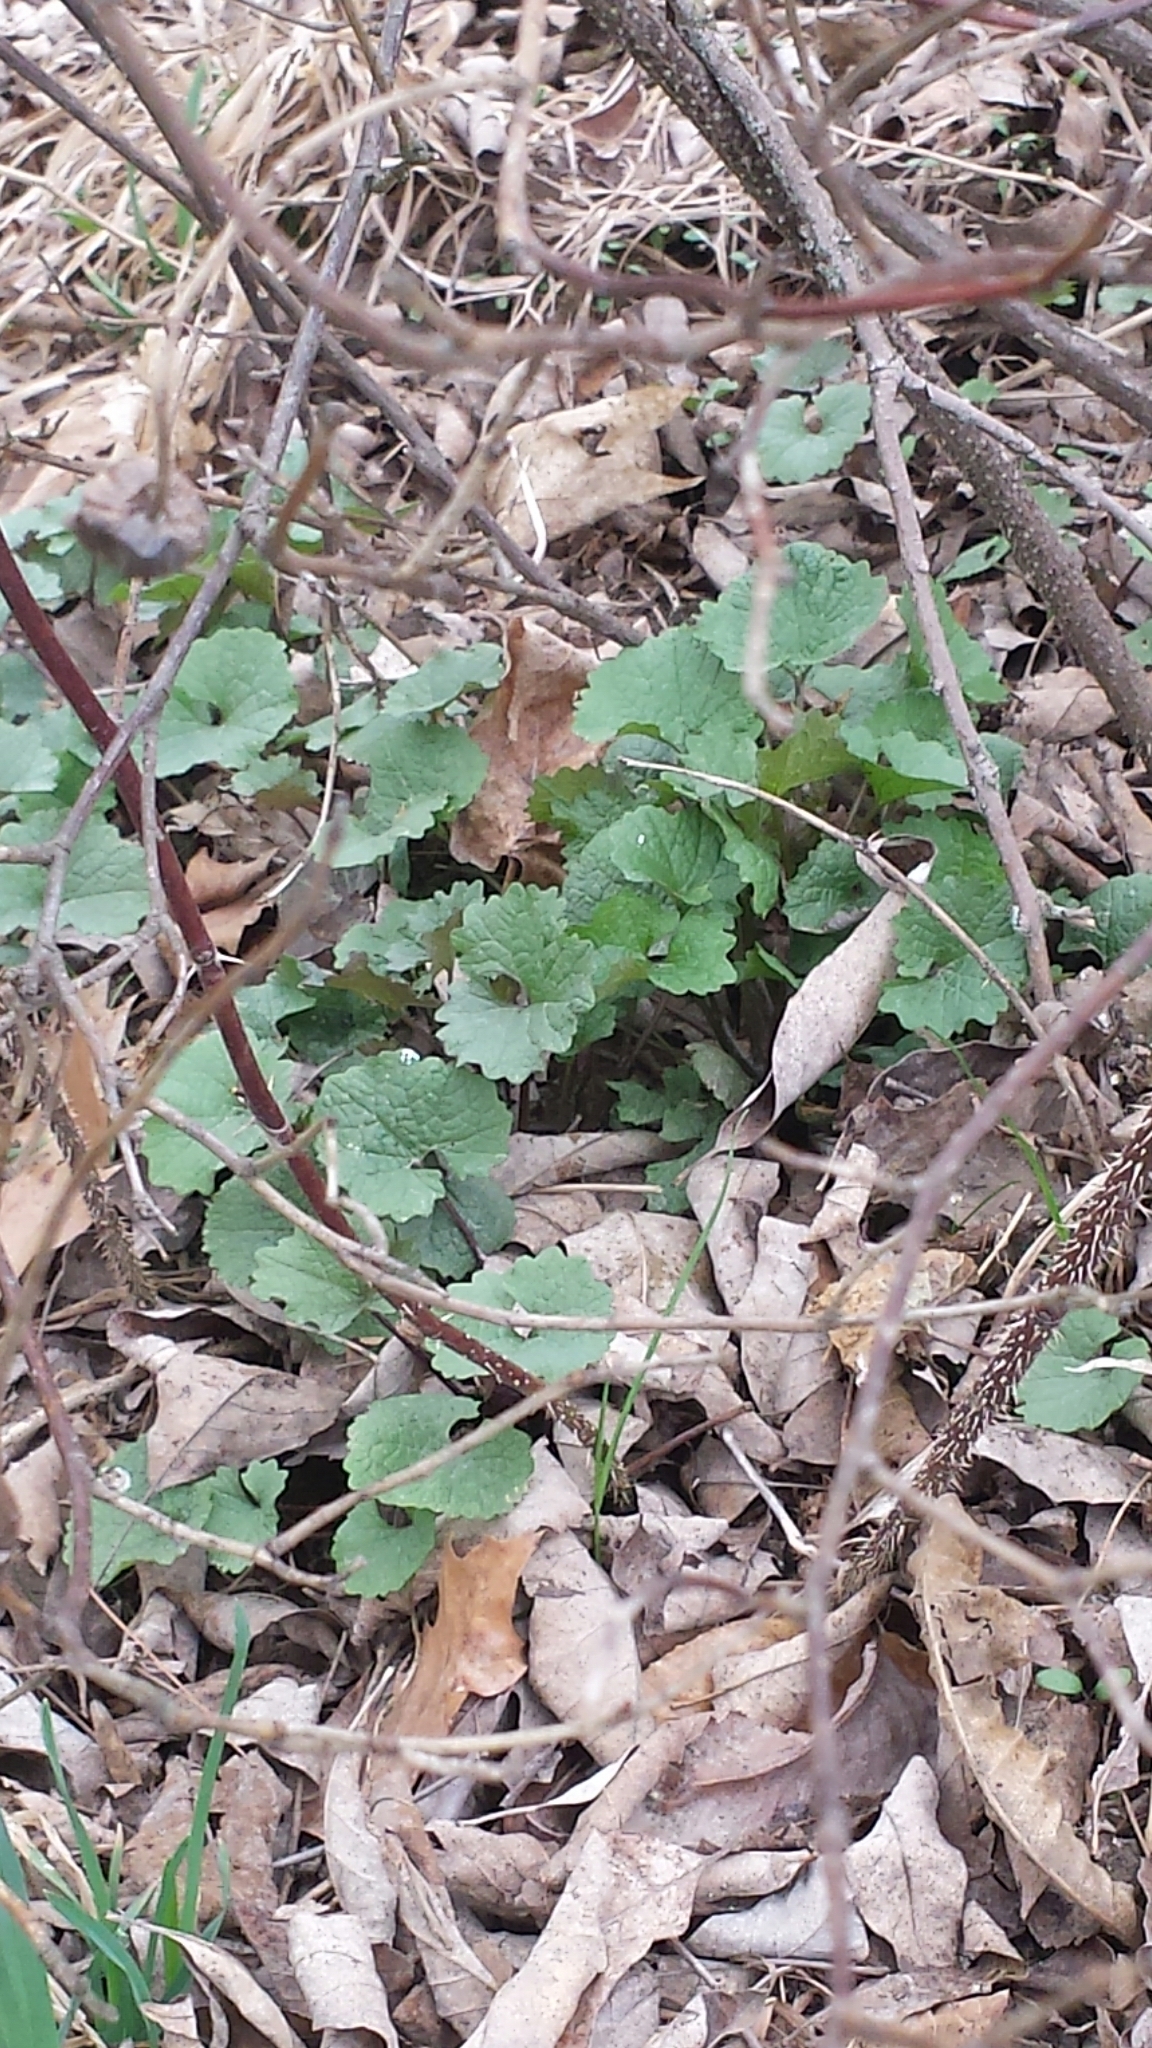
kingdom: Plantae
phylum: Tracheophyta
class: Magnoliopsida
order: Brassicales
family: Brassicaceae
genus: Alliaria
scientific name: Alliaria petiolata
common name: Garlic mustard
